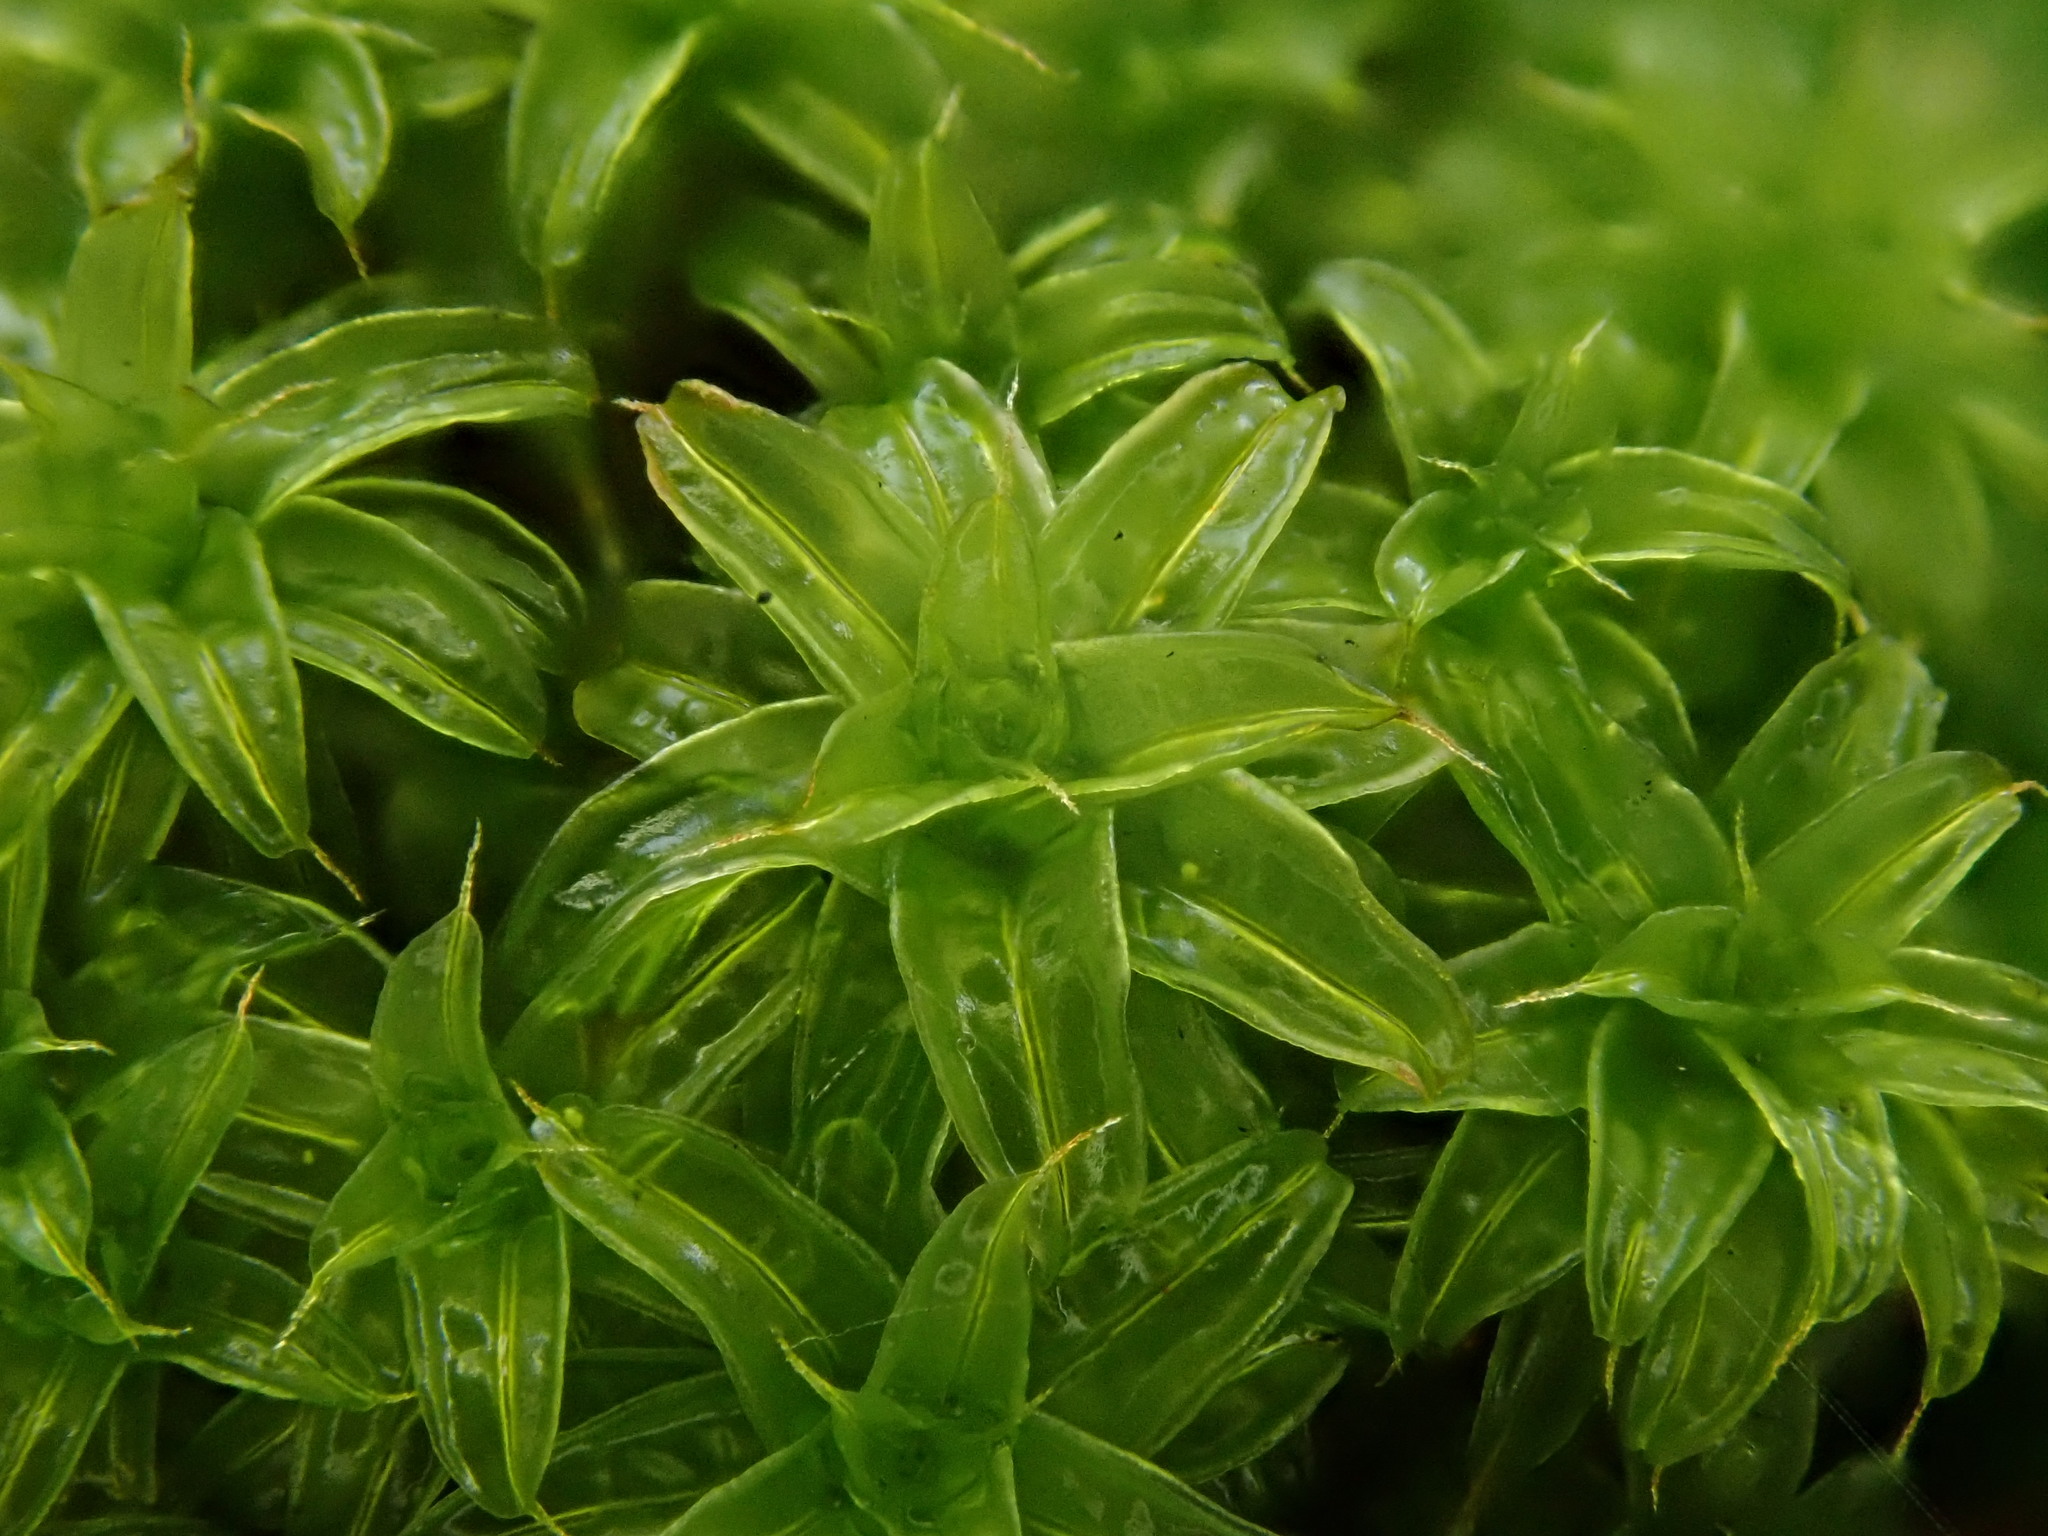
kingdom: Plantae
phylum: Bryophyta
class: Bryopsida
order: Pottiales
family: Pottiaceae
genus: Syntrichia
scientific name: Syntrichia ruralis
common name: Sidewalk screw moss
